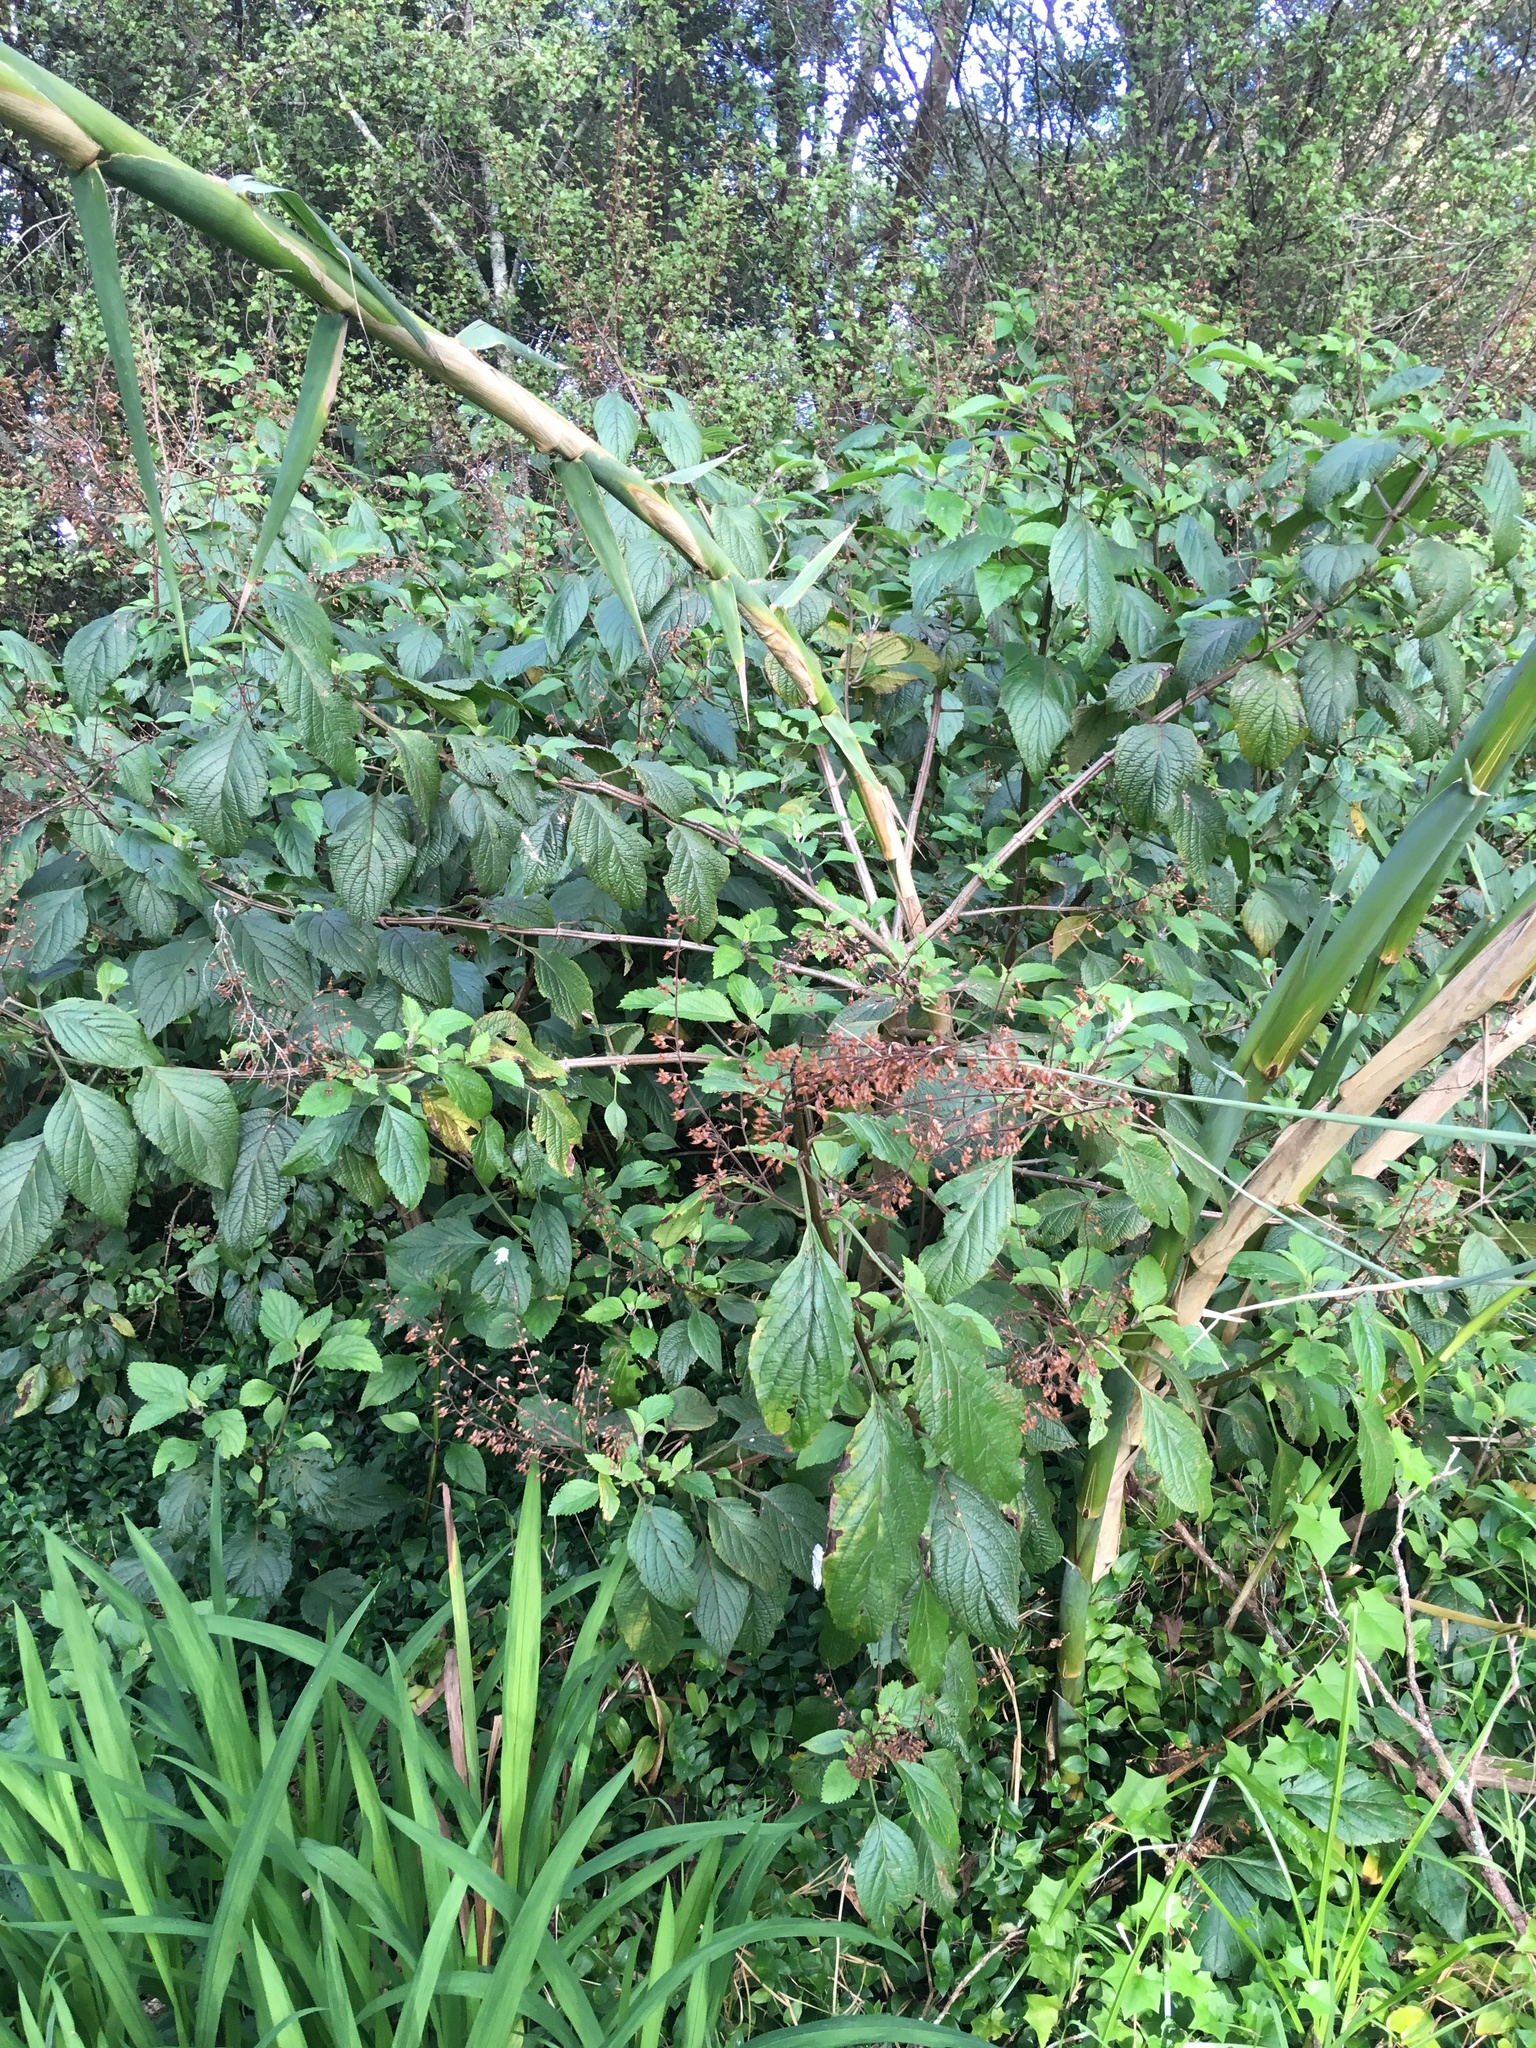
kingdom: Plantae
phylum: Tracheophyta
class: Liliopsida
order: Poales
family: Poaceae
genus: Arundo
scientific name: Arundo donax
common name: Giant reed
